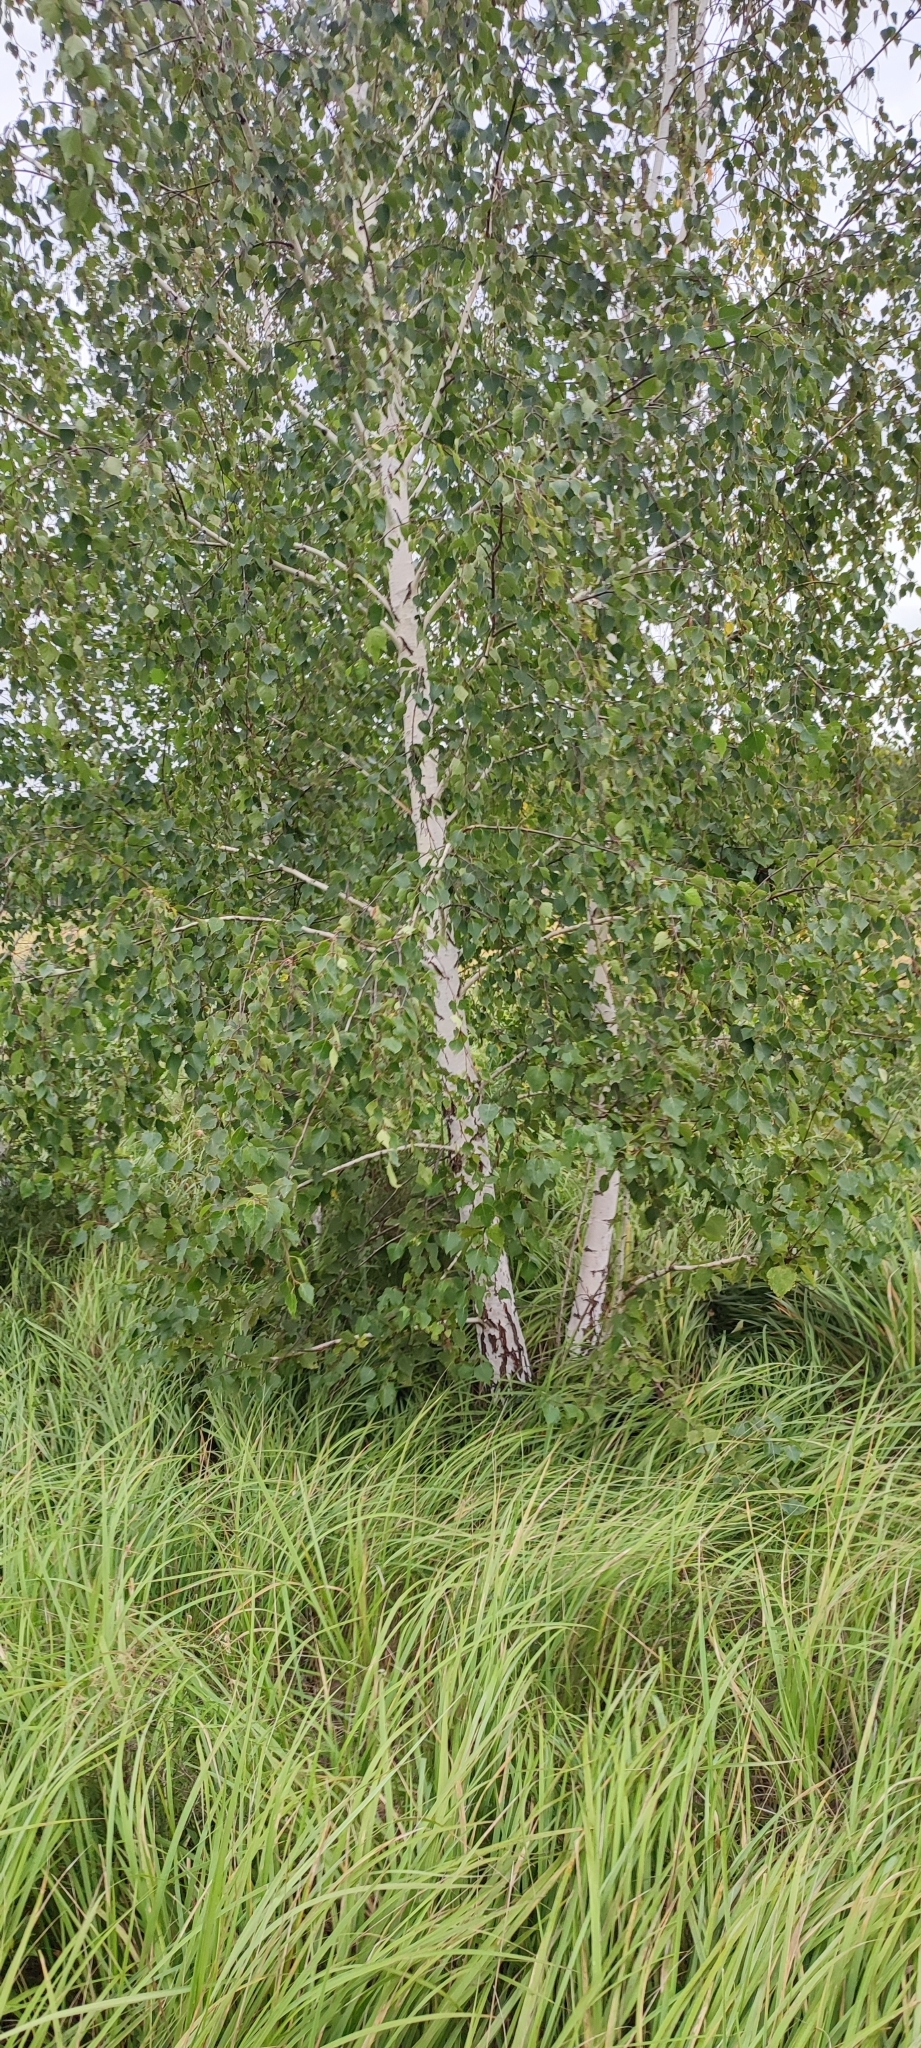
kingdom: Plantae
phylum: Tracheophyta
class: Magnoliopsida
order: Fagales
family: Betulaceae
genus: Betula
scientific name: Betula pendula
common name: Silver birch
